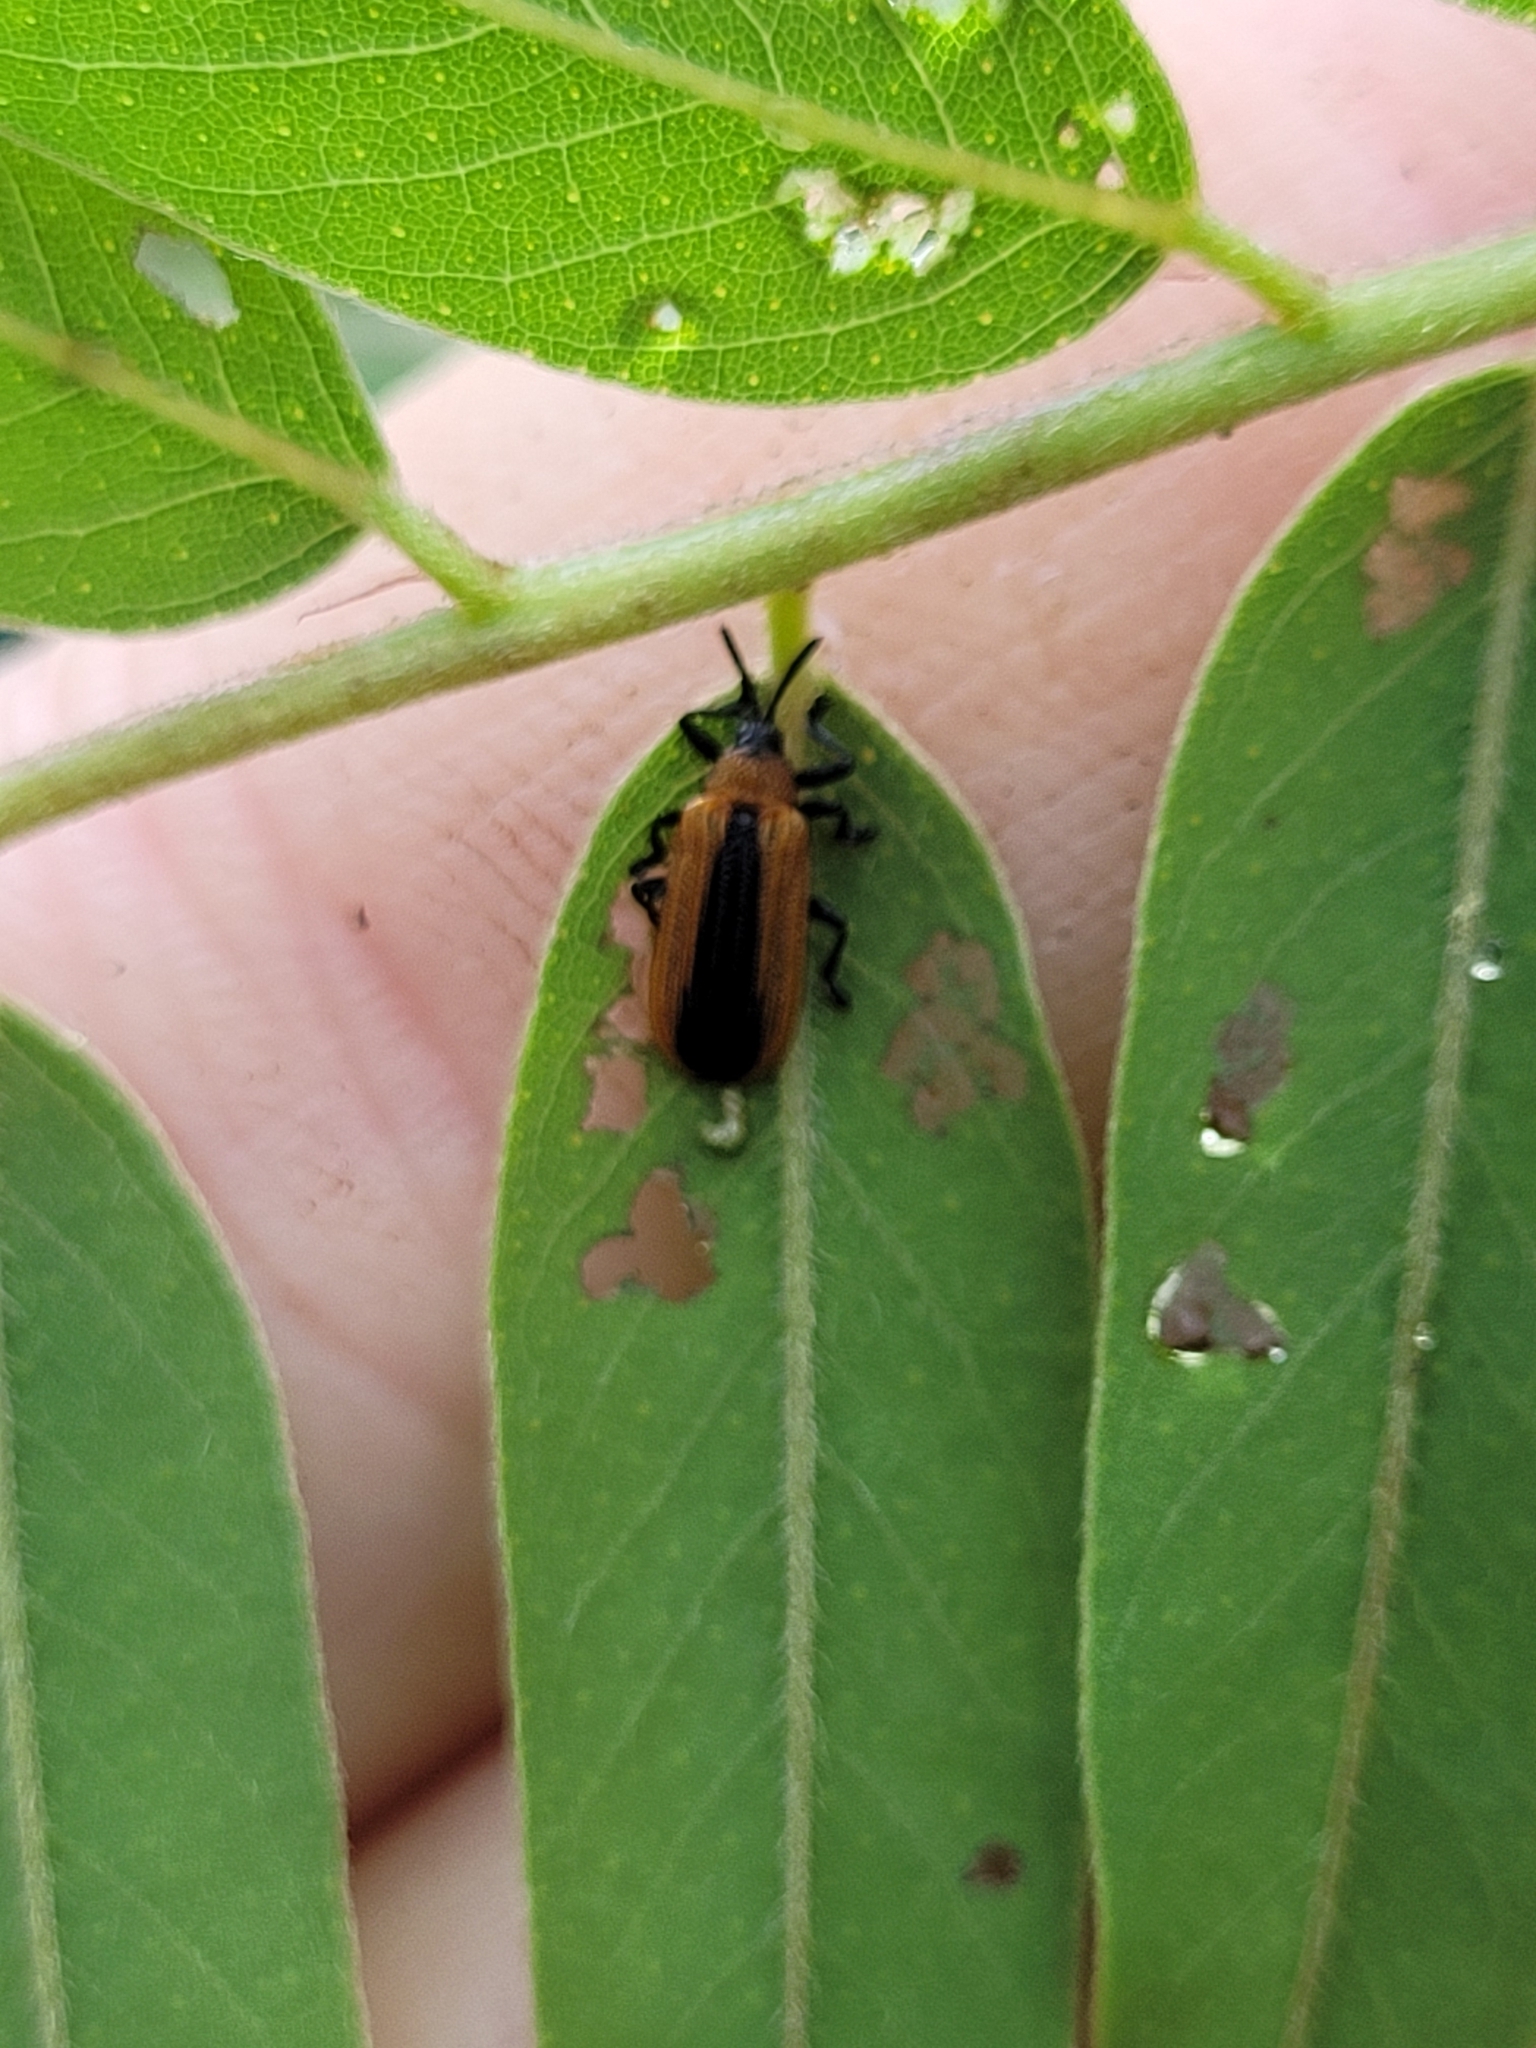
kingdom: Animalia
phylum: Arthropoda
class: Insecta
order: Coleoptera
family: Chrysomelidae
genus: Odontota
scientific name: Odontota dorsalis
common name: Locust leaf-miner beetle
